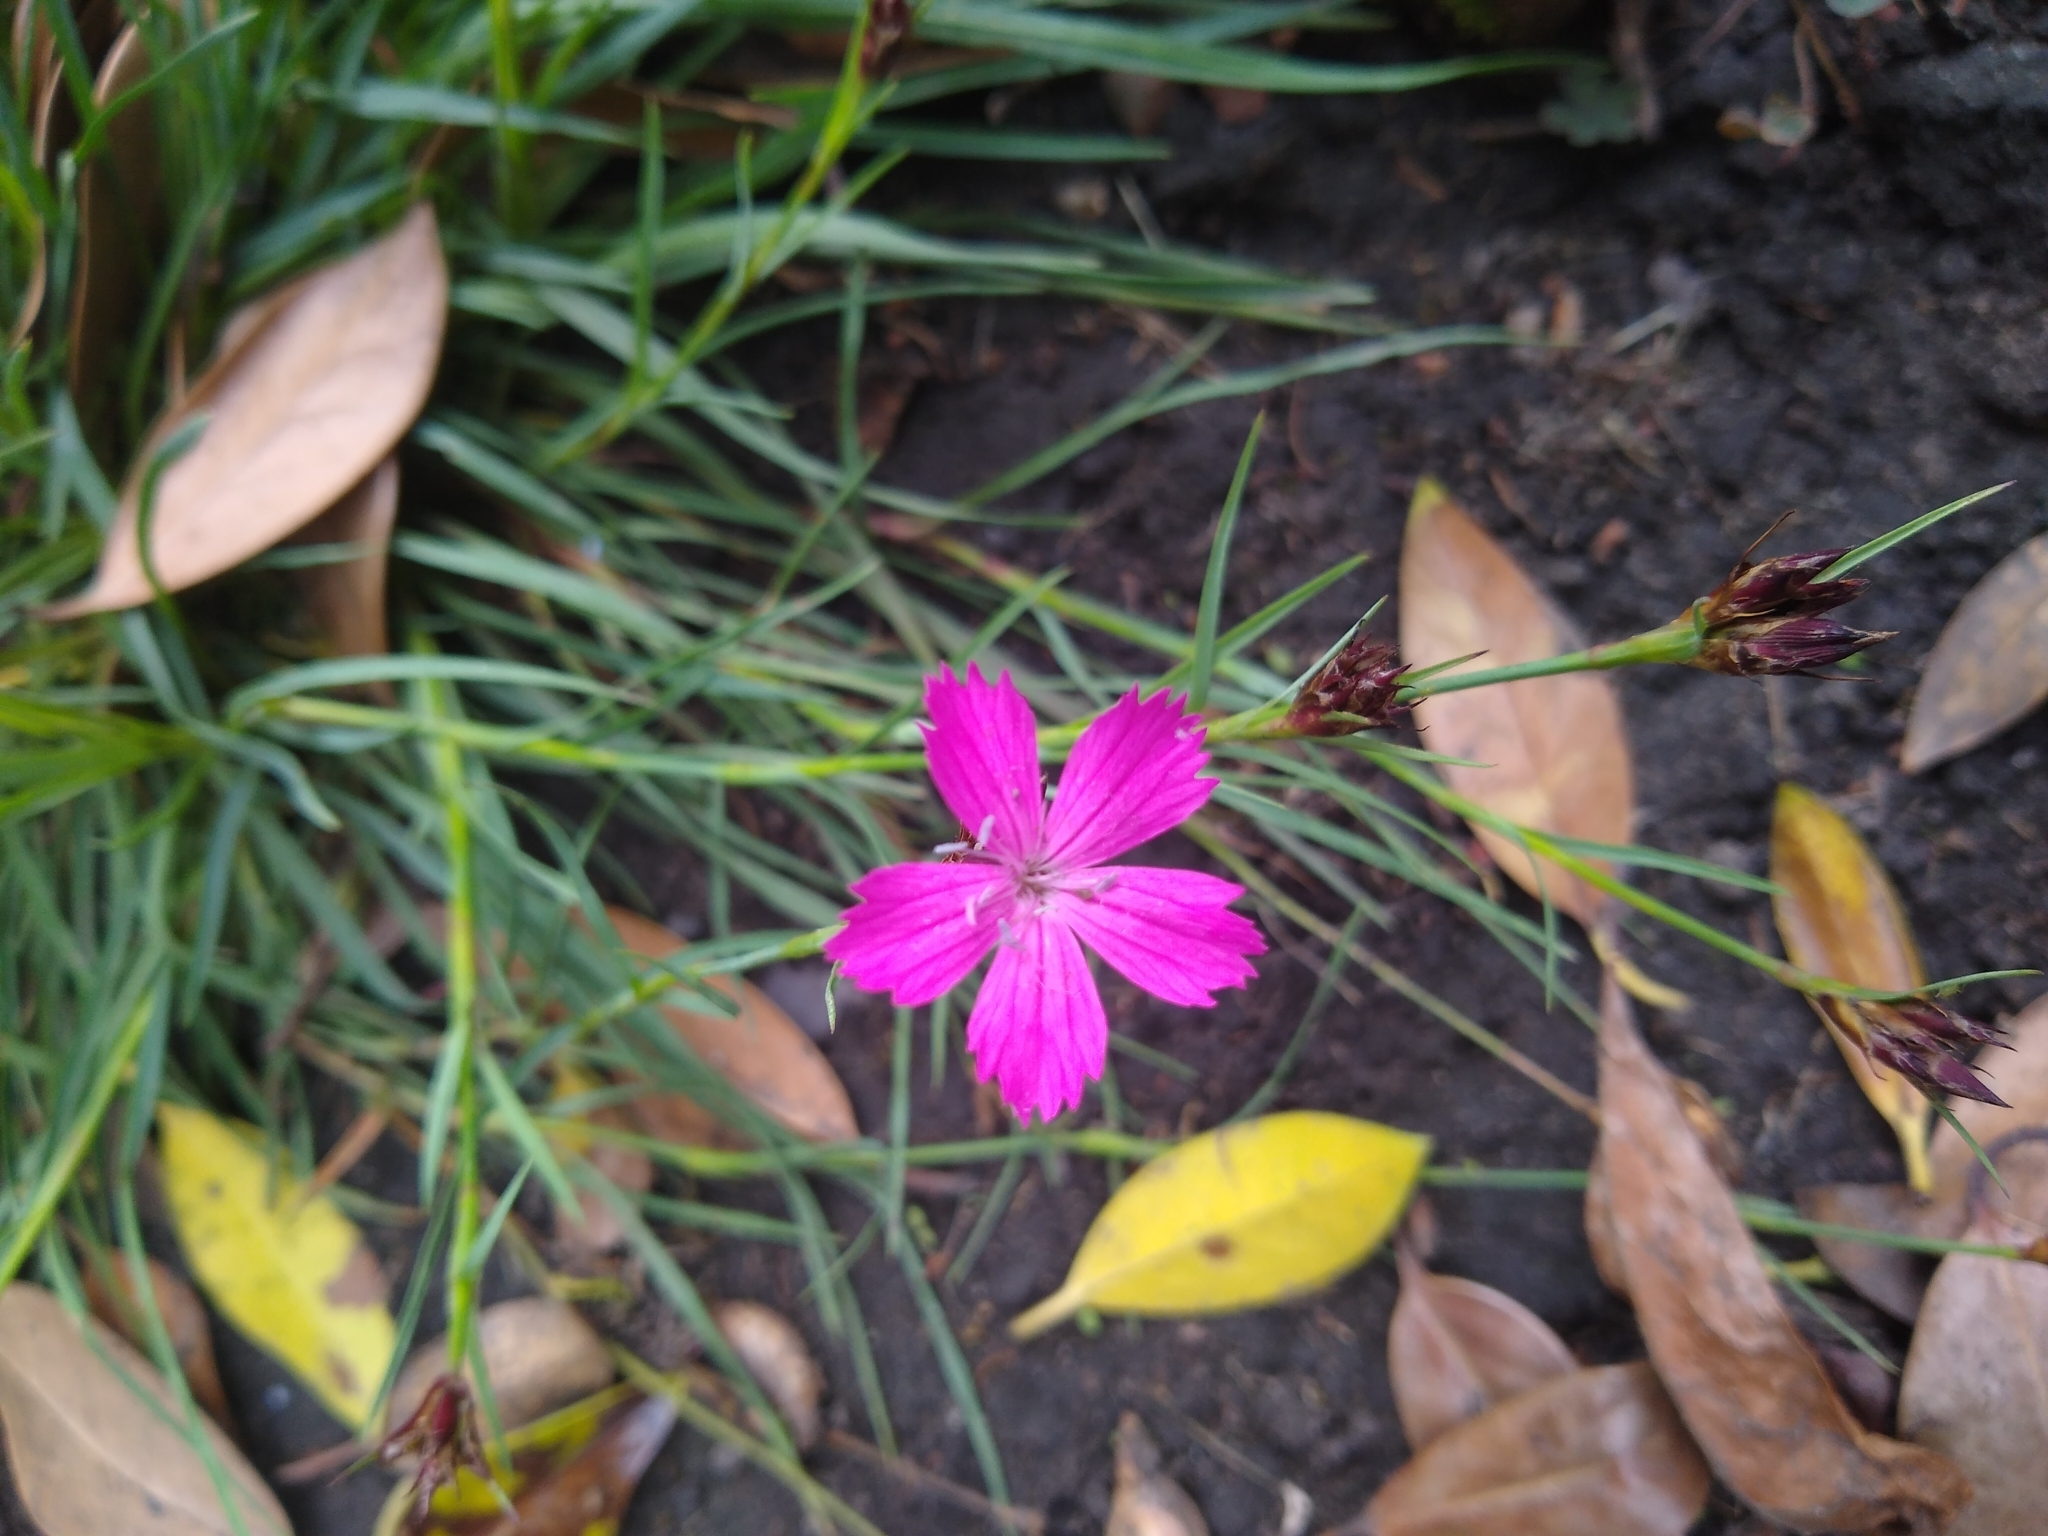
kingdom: Plantae
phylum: Tracheophyta
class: Magnoliopsida
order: Caryophyllales
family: Caryophyllaceae
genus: Dianthus
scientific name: Dianthus carthusianorum
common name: Carthusian pink
